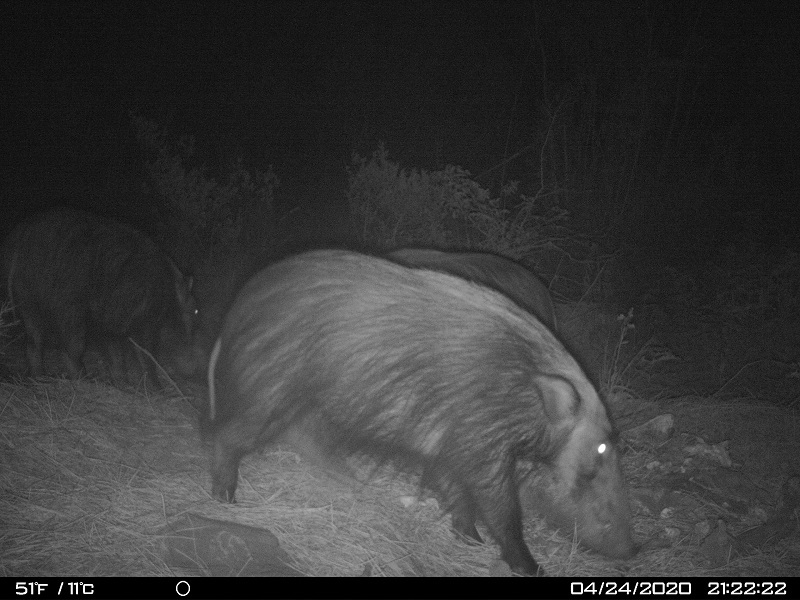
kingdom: Animalia
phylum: Chordata
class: Mammalia
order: Artiodactyla
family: Suidae
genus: Potamochoerus
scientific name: Potamochoerus larvatus
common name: Bushpig
